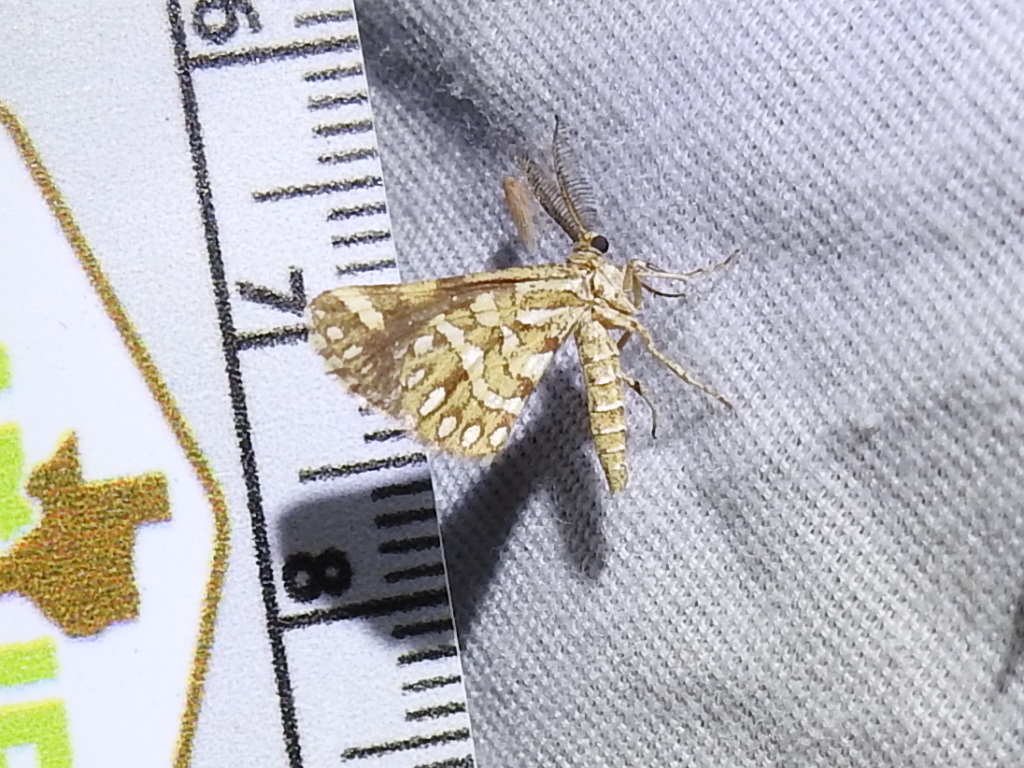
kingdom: Animalia
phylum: Arthropoda
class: Insecta
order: Lepidoptera
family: Geometridae
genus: Narraga
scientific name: Narraga fimetaria
